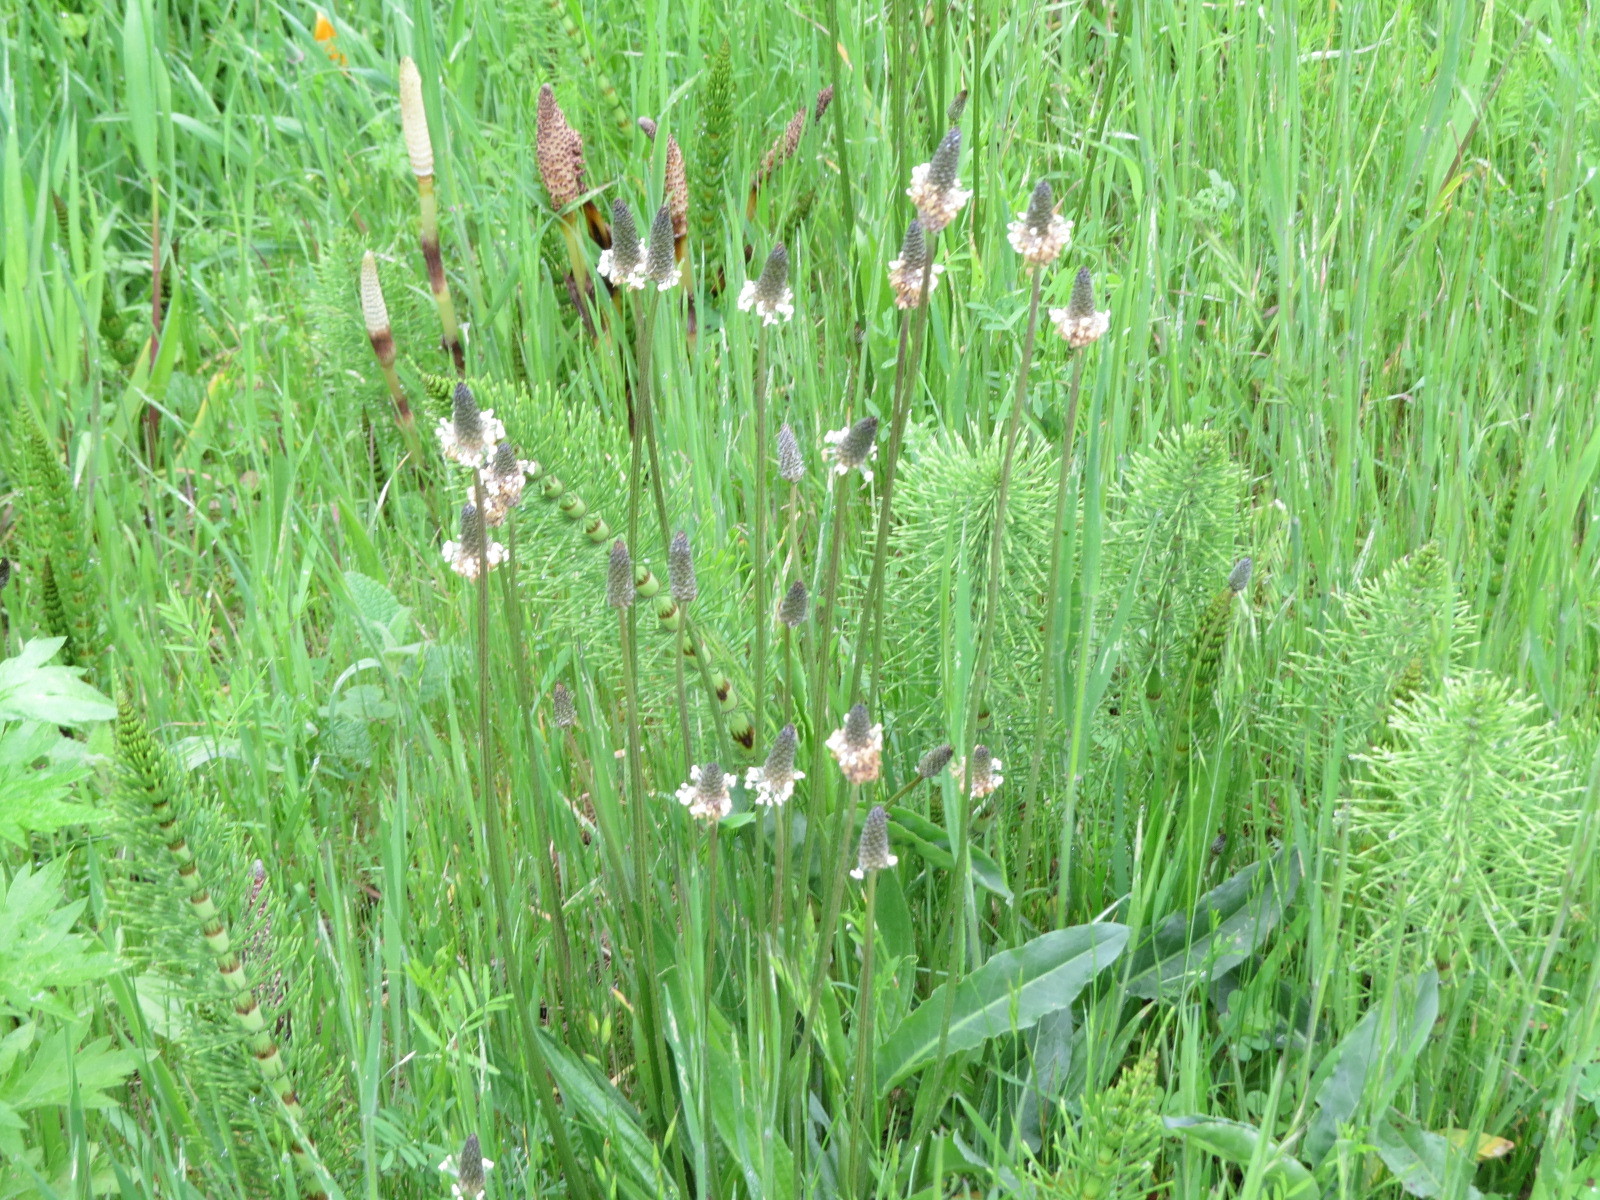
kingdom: Plantae
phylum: Tracheophyta
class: Magnoliopsida
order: Lamiales
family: Plantaginaceae
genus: Plantago
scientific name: Plantago lanceolata
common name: Ribwort plantain
